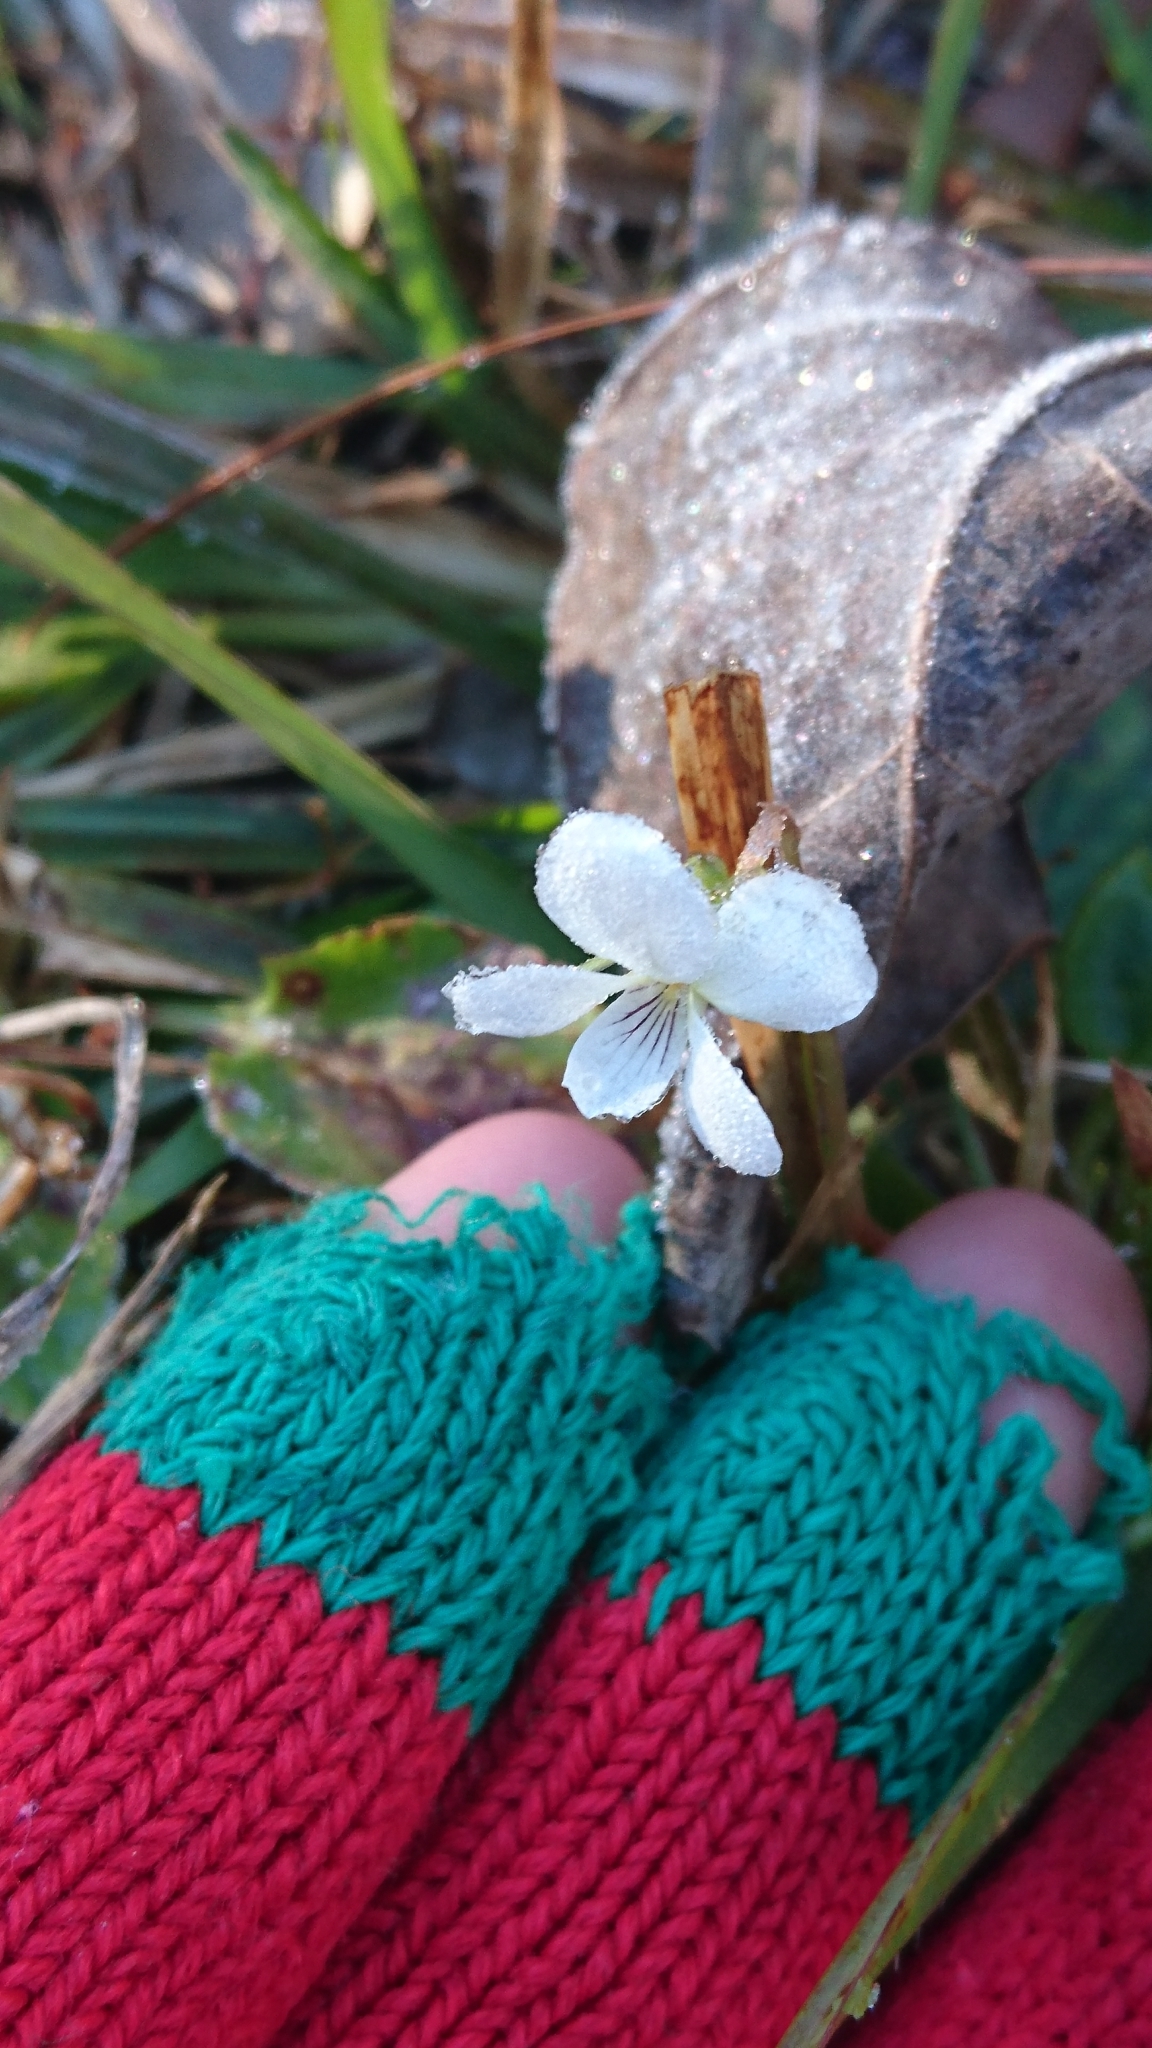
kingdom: Plantae
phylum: Tracheophyta
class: Magnoliopsida
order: Malpighiales
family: Violaceae
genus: Viola
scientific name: Viola primulifolia
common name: Primrose-leaf violet
